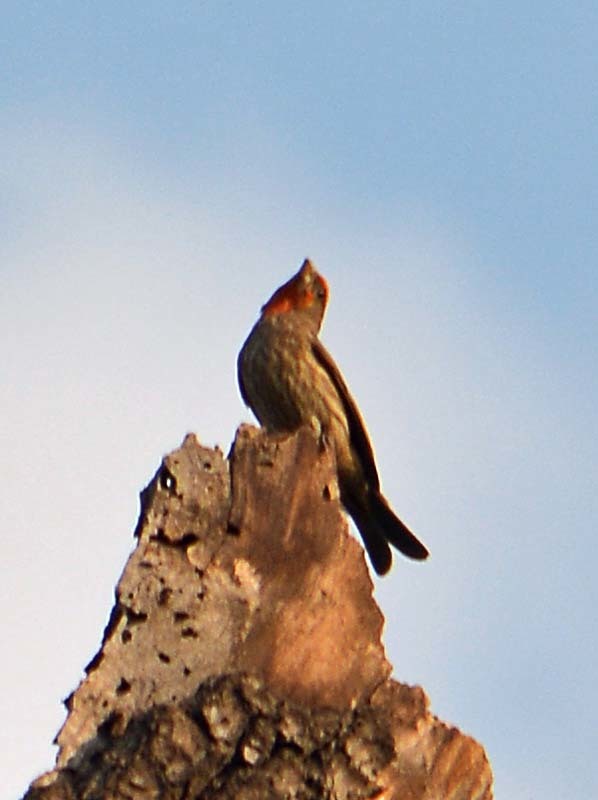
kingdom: Animalia
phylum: Chordata
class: Aves
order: Passeriformes
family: Fringillidae
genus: Haemorhous
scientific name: Haemorhous mexicanus
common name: House finch
